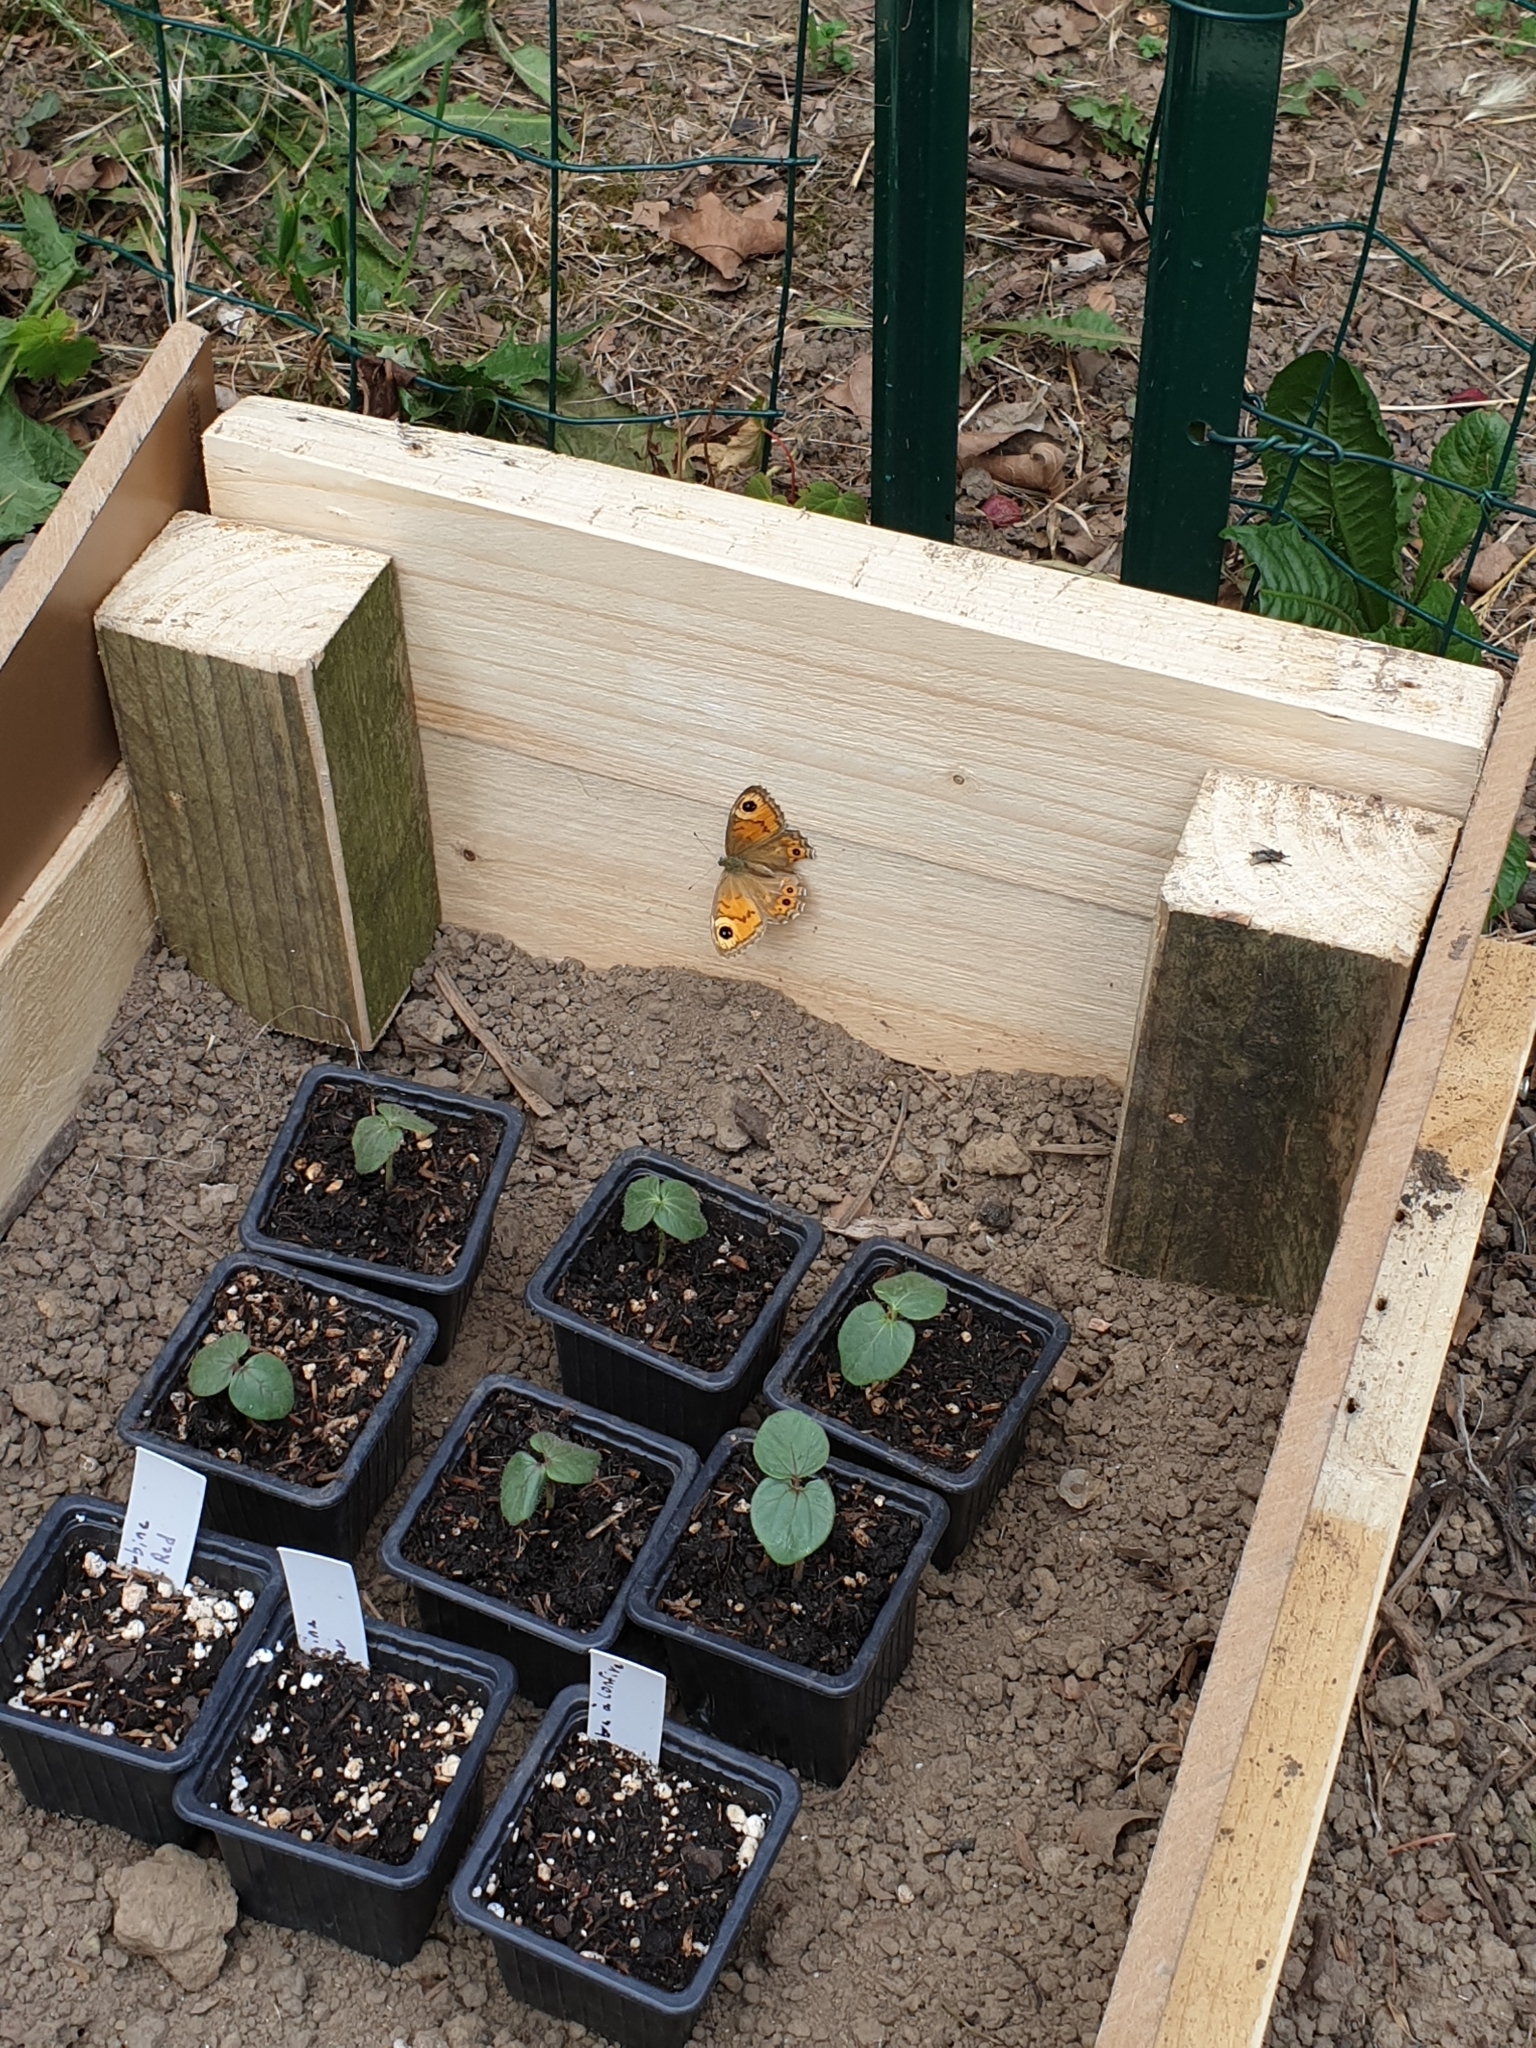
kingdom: Animalia
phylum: Arthropoda
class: Insecta
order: Lepidoptera
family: Nymphalidae
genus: Pararge
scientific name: Pararge Lasiommata maera
